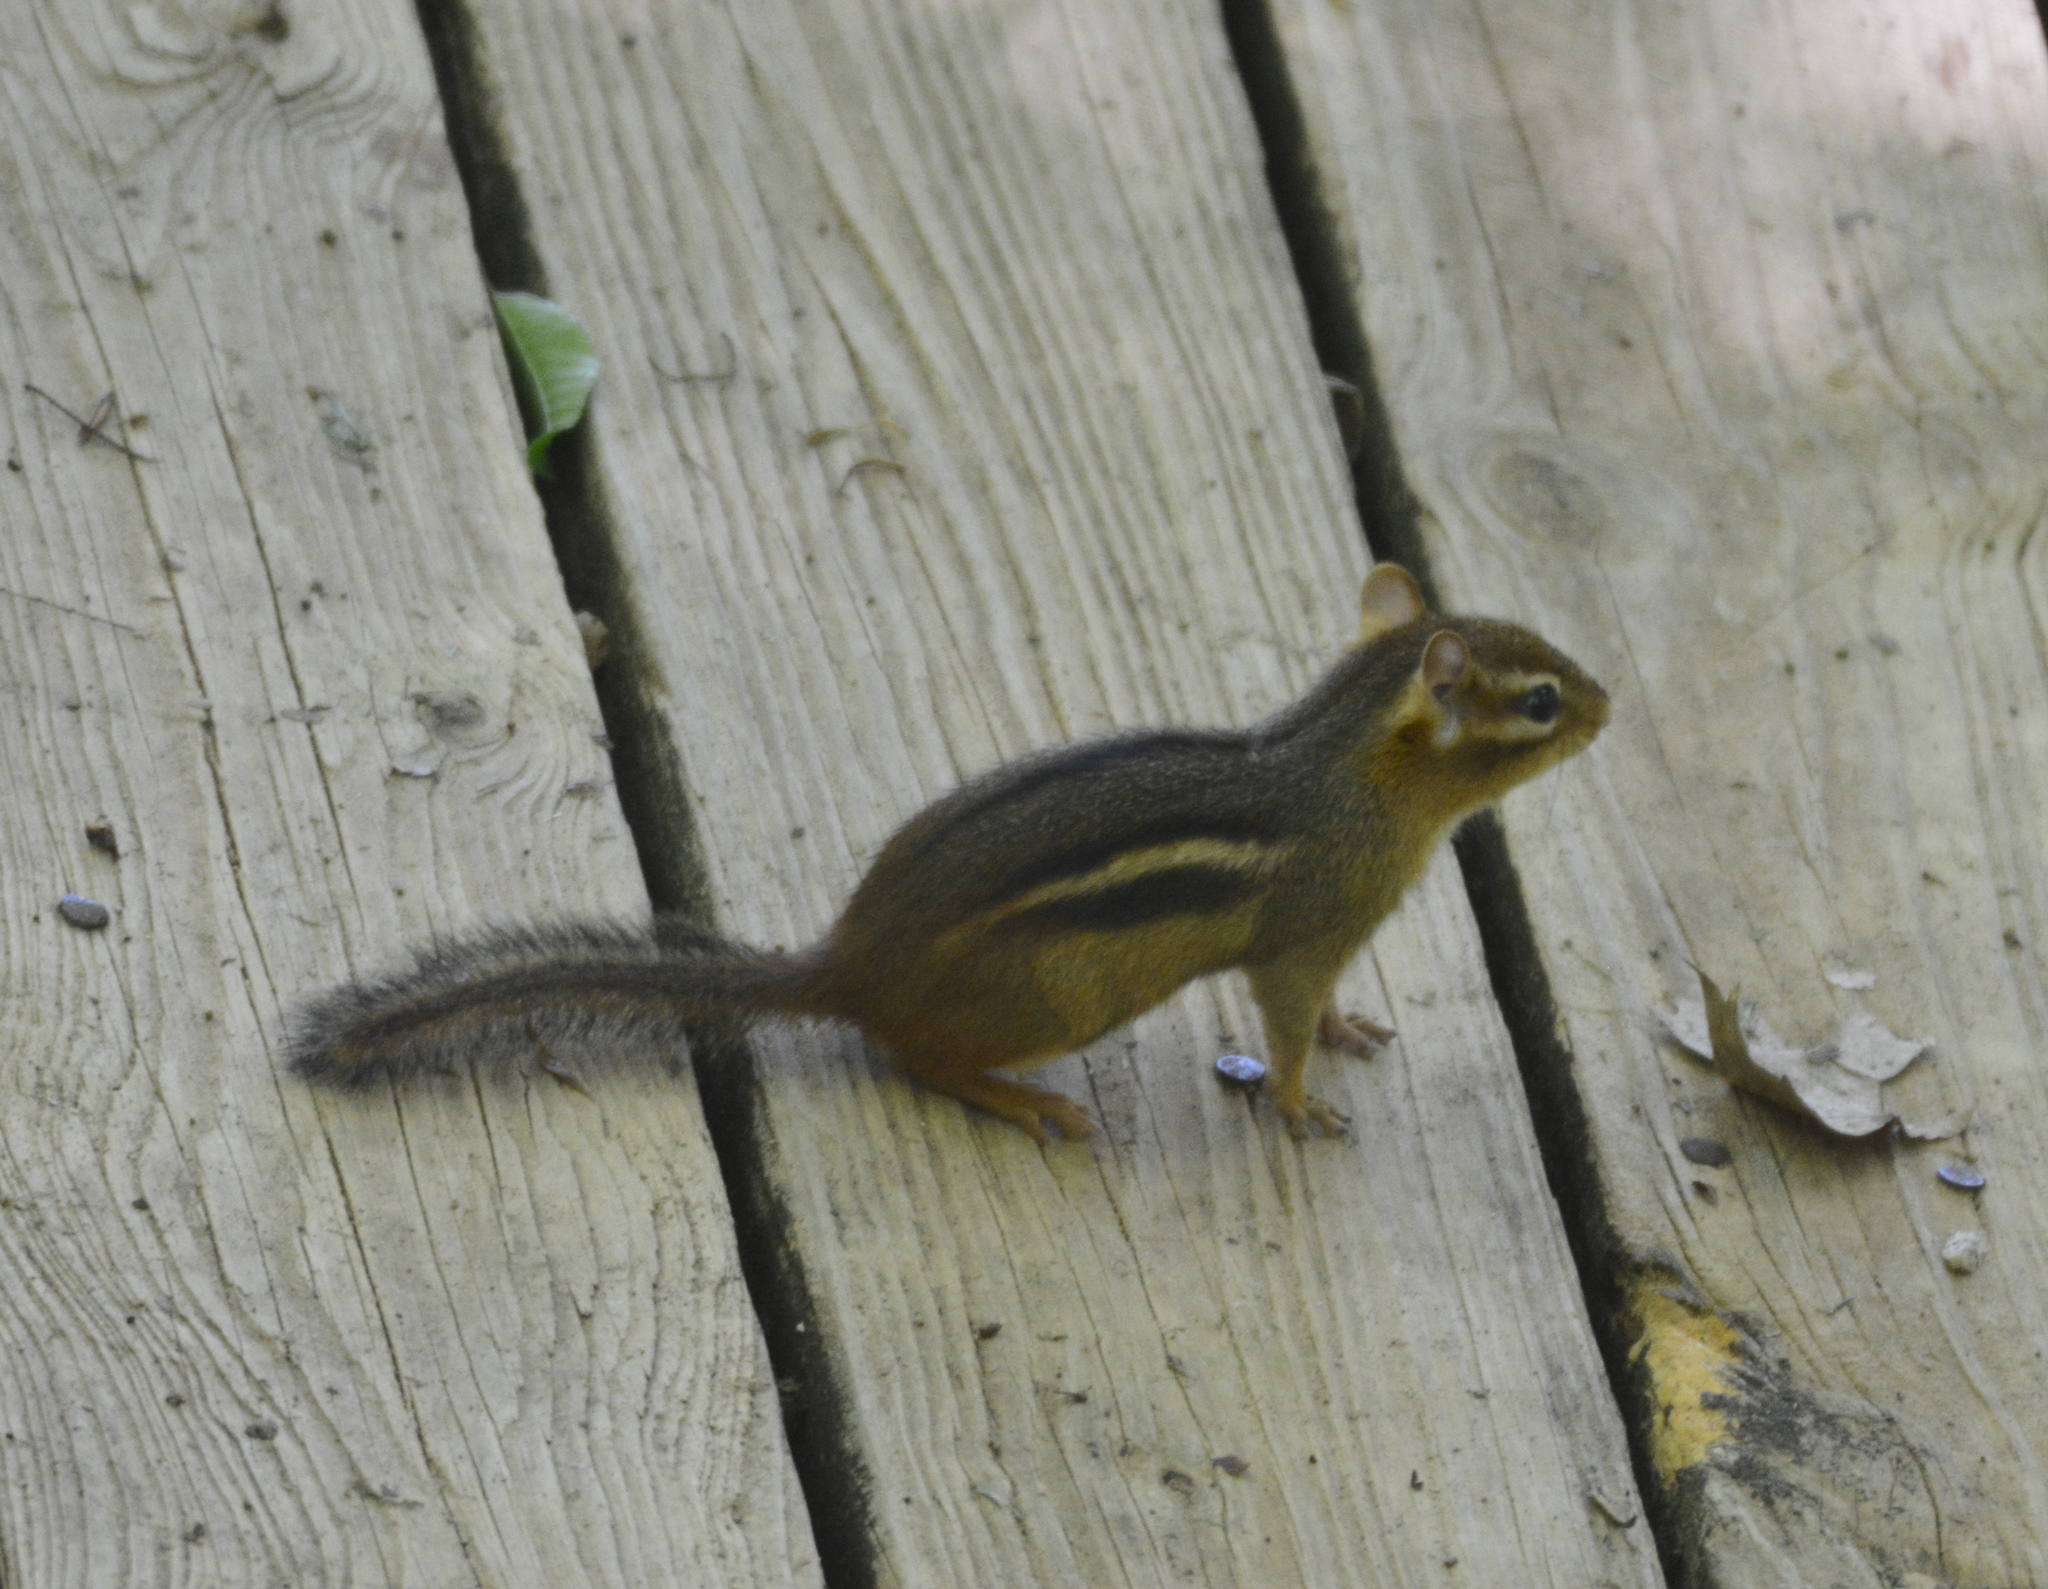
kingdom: Animalia
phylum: Chordata
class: Mammalia
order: Rodentia
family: Sciuridae
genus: Tamias
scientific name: Tamias striatus
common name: Eastern chipmunk
